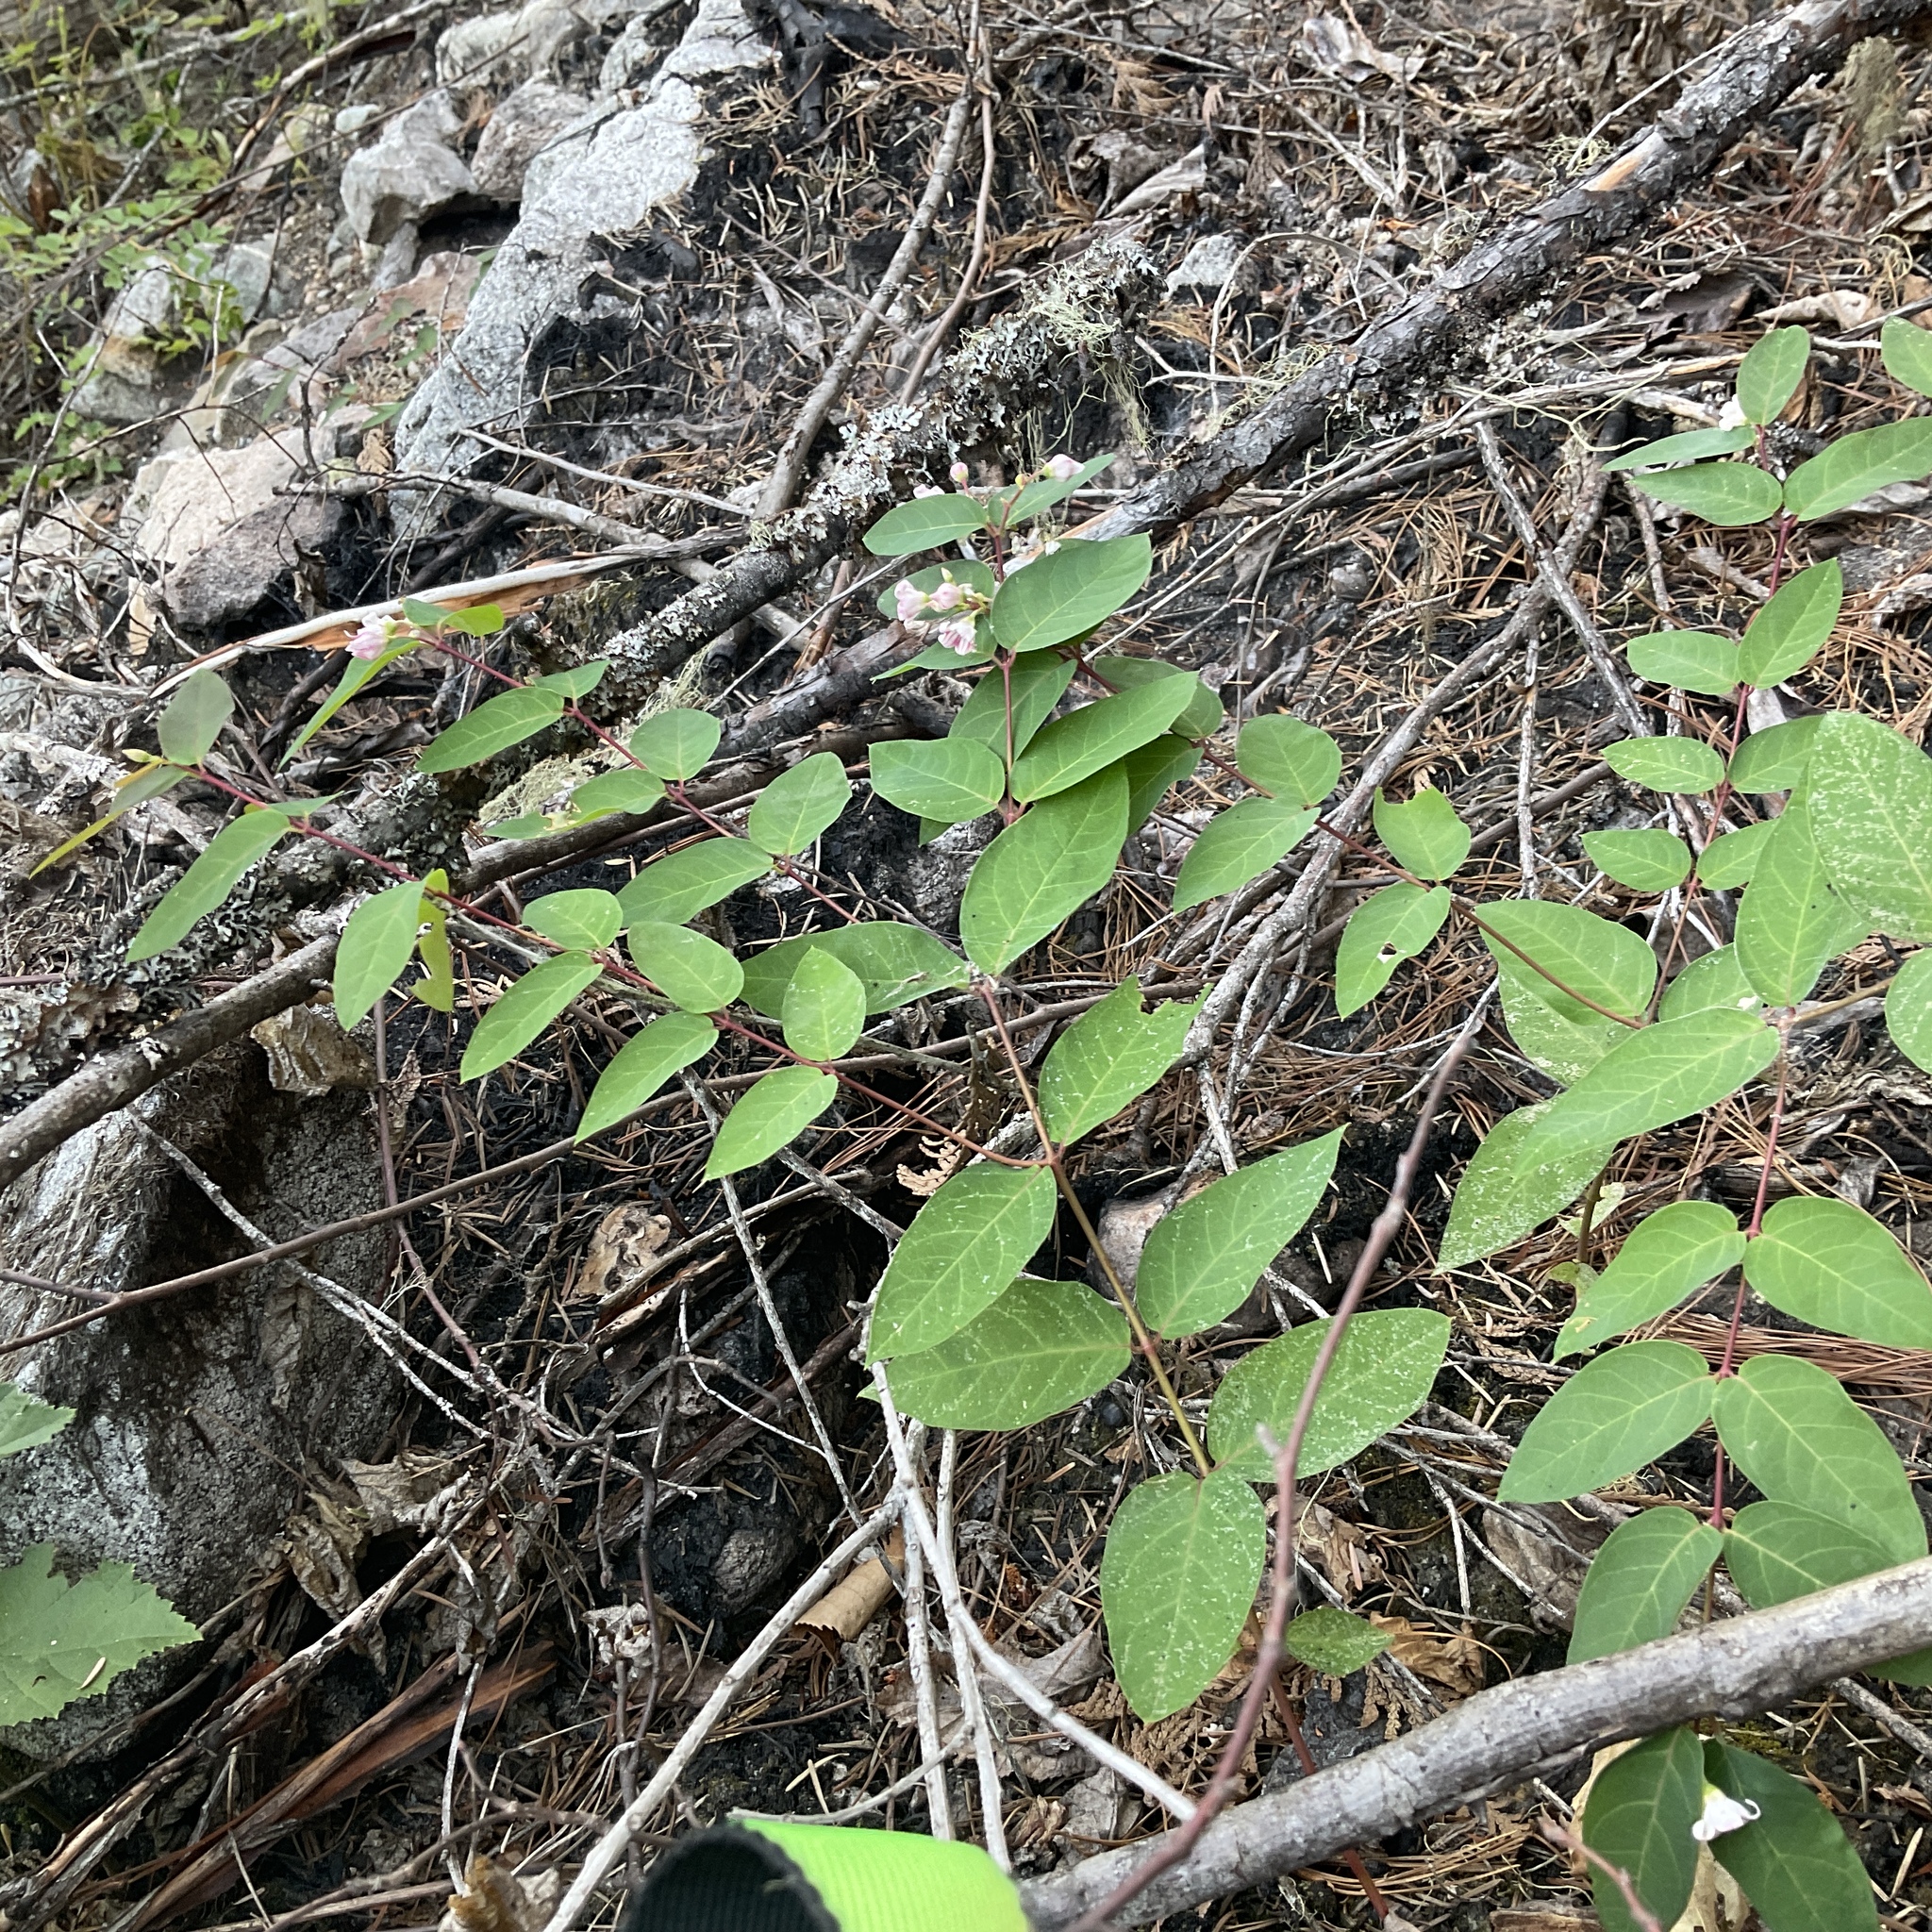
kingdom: Plantae
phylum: Tracheophyta
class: Magnoliopsida
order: Gentianales
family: Apocynaceae
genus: Apocynum
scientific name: Apocynum androsaemifolium
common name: Spreading dogbane
